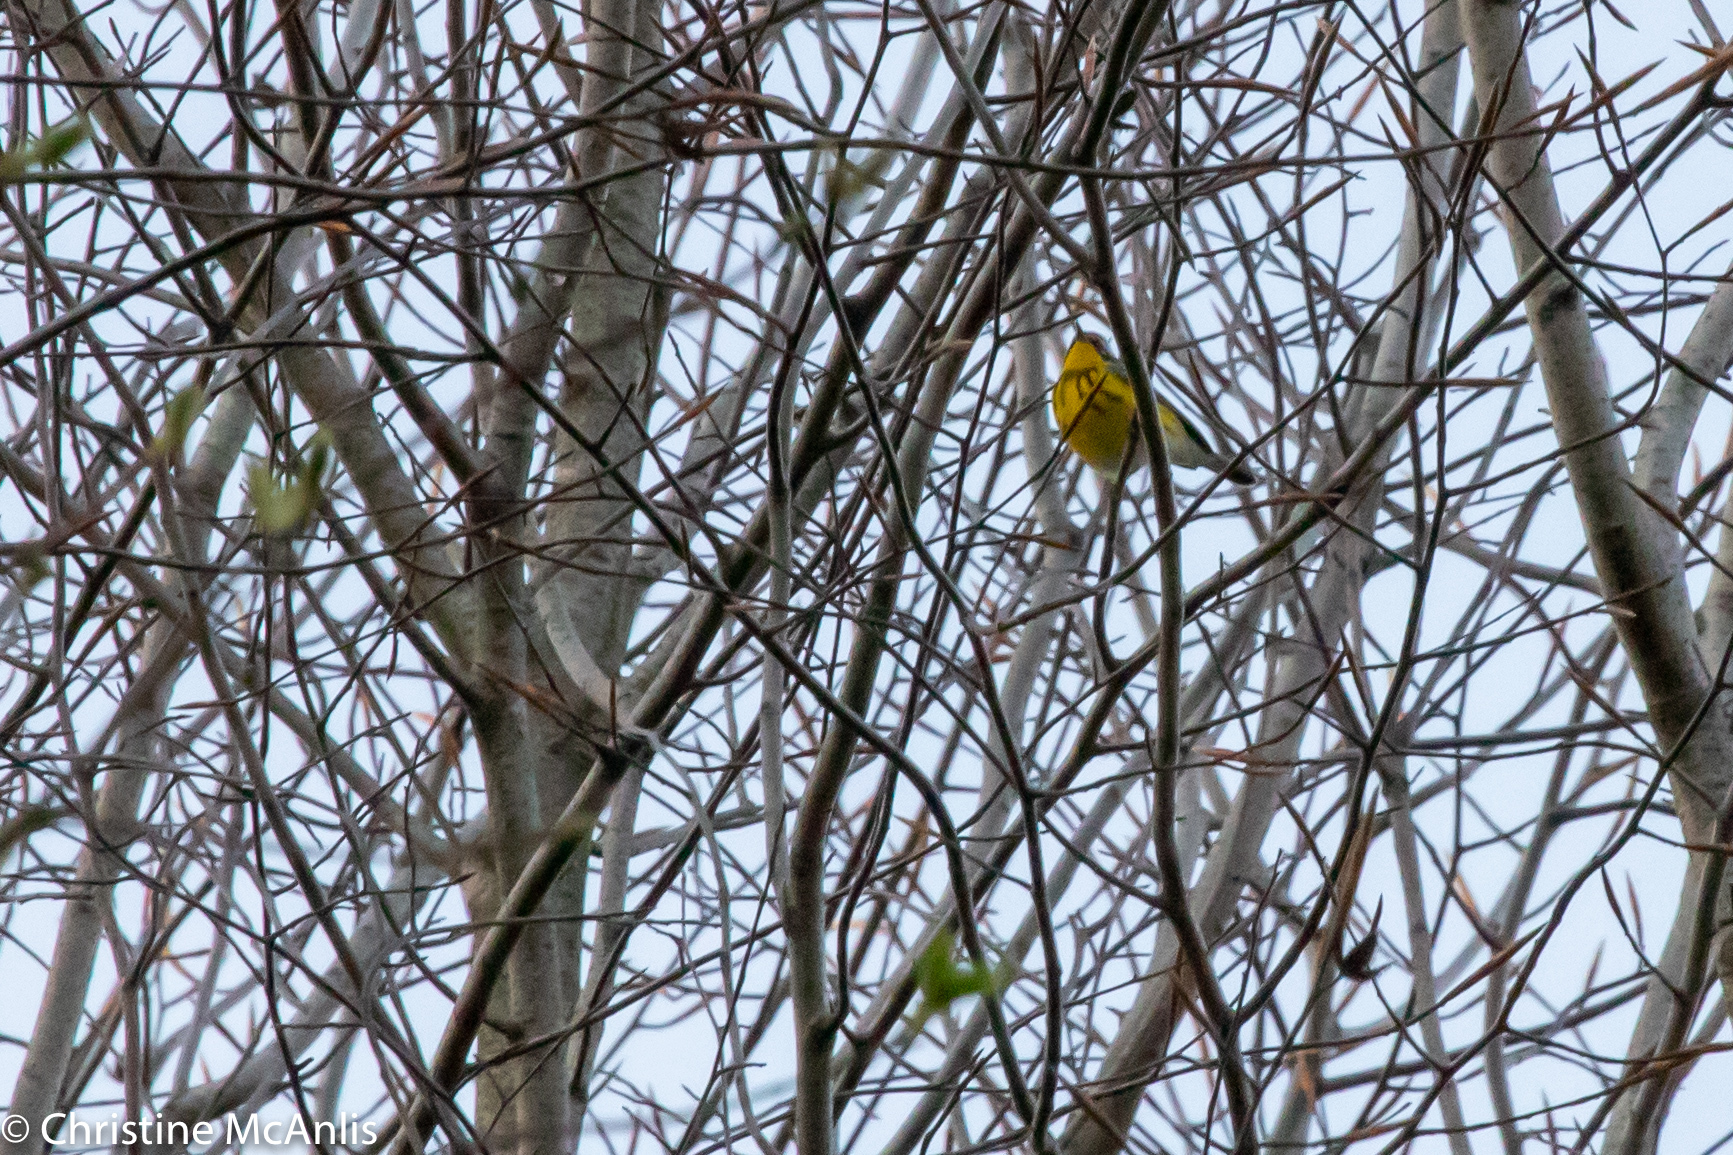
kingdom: Animalia
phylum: Chordata
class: Aves
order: Passeriformes
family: Parulidae
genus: Setophaga
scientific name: Setophaga magnolia
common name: Magnolia warbler
